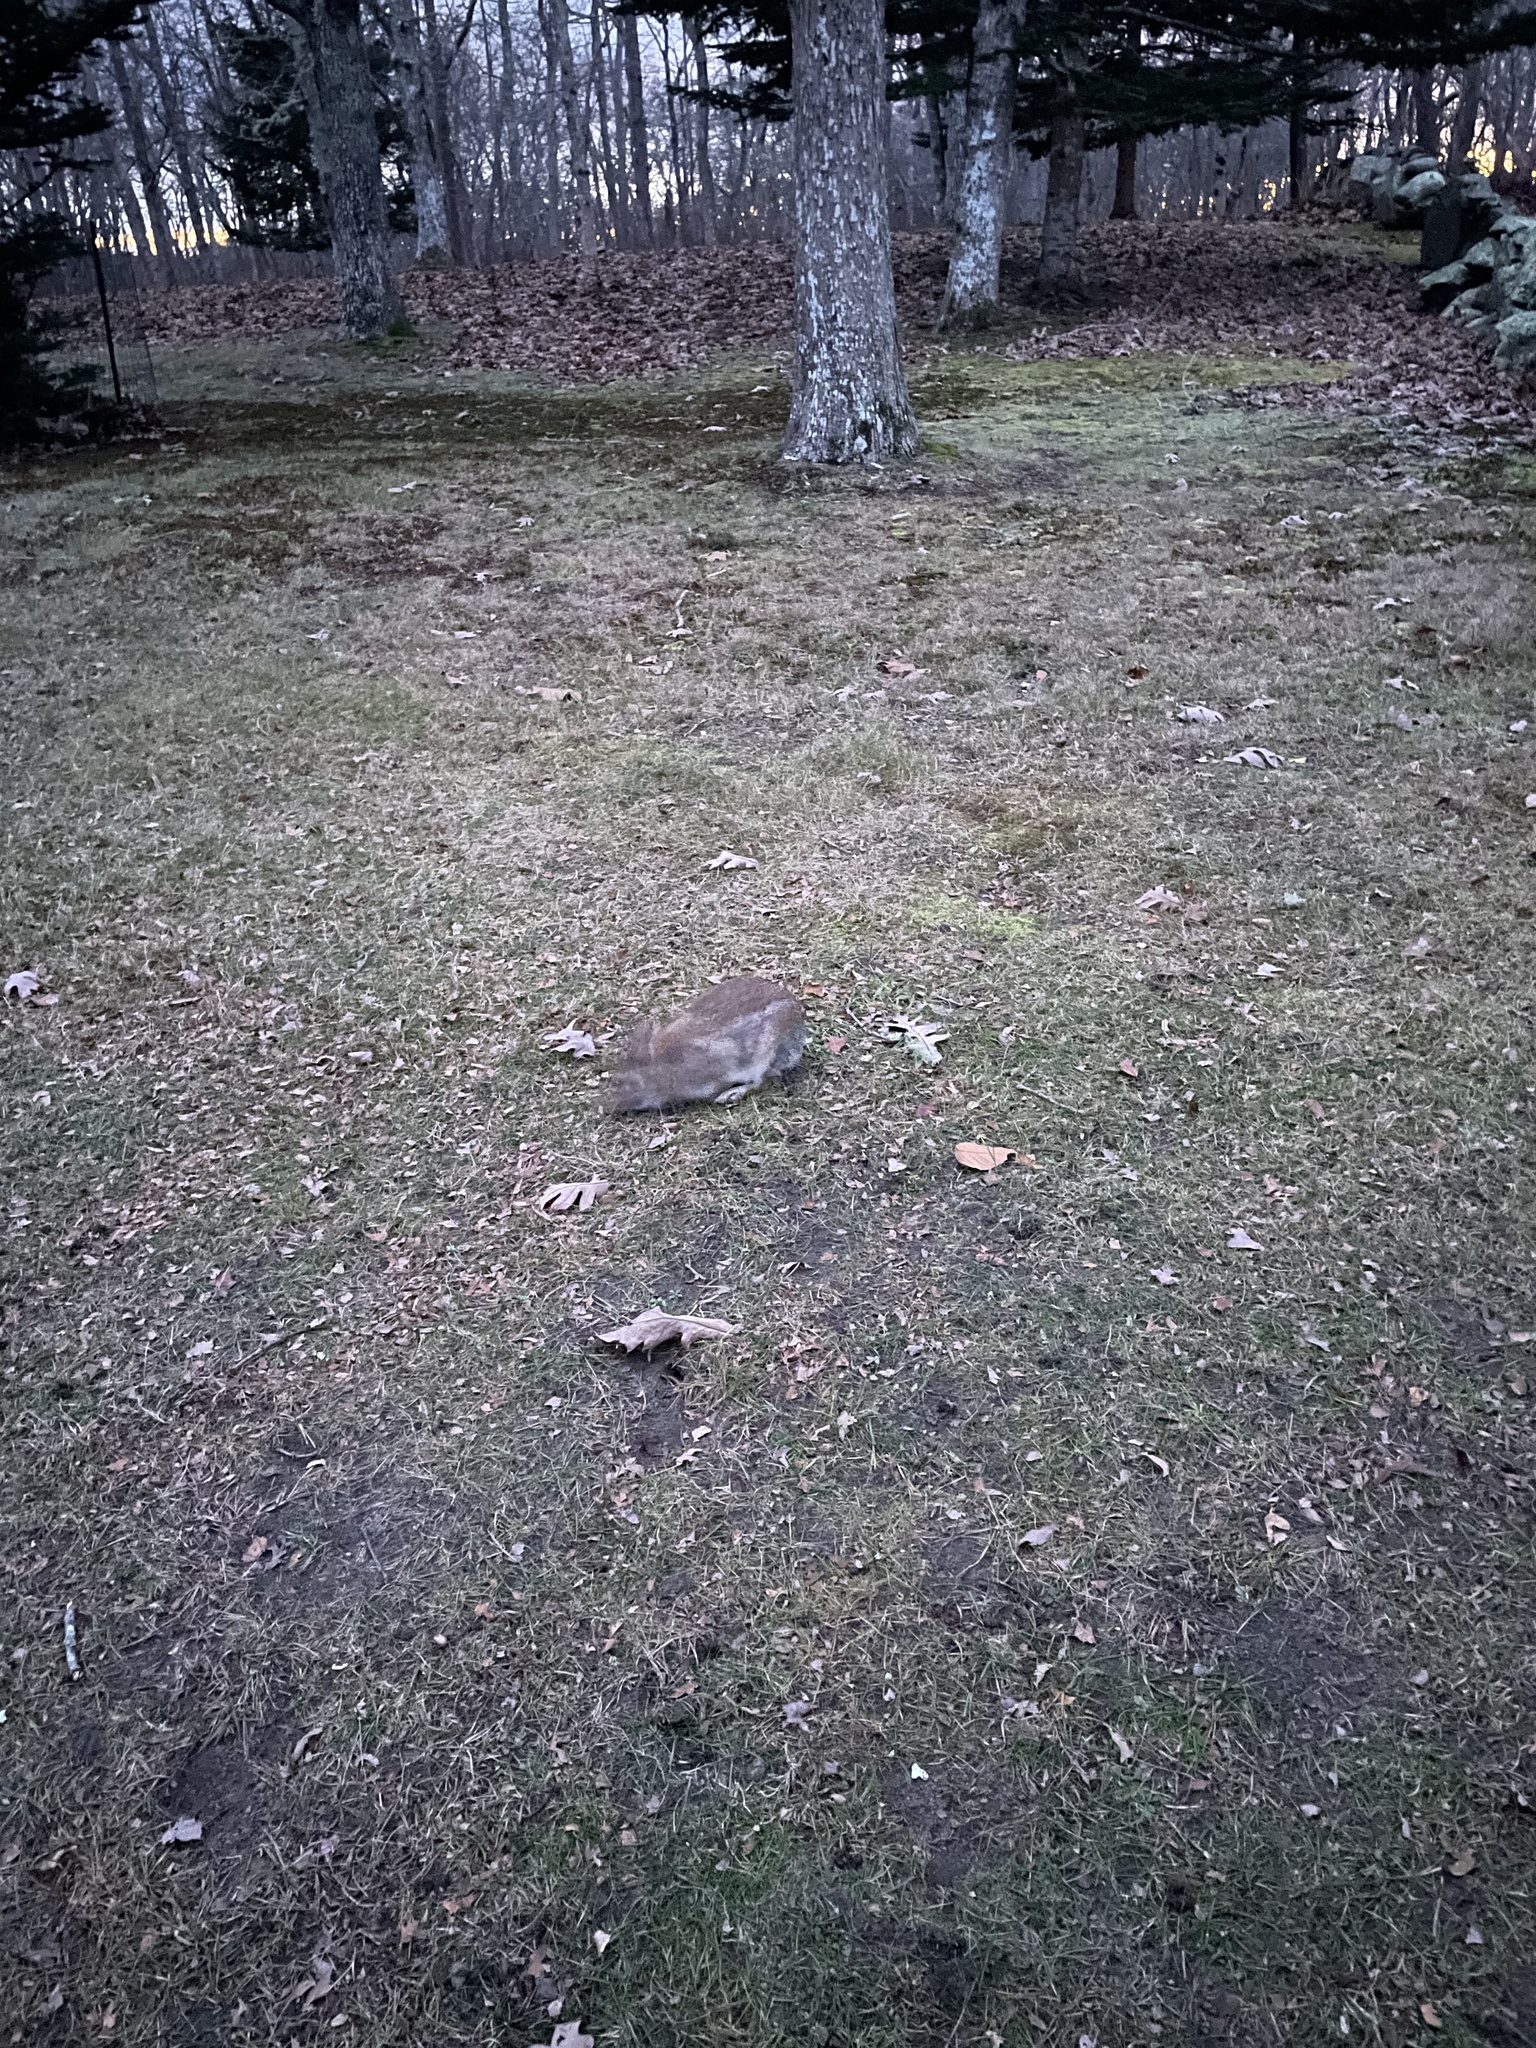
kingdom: Animalia
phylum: Chordata
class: Mammalia
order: Lagomorpha
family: Leporidae
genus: Sylvilagus
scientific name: Sylvilagus floridanus
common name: Eastern cottontail
